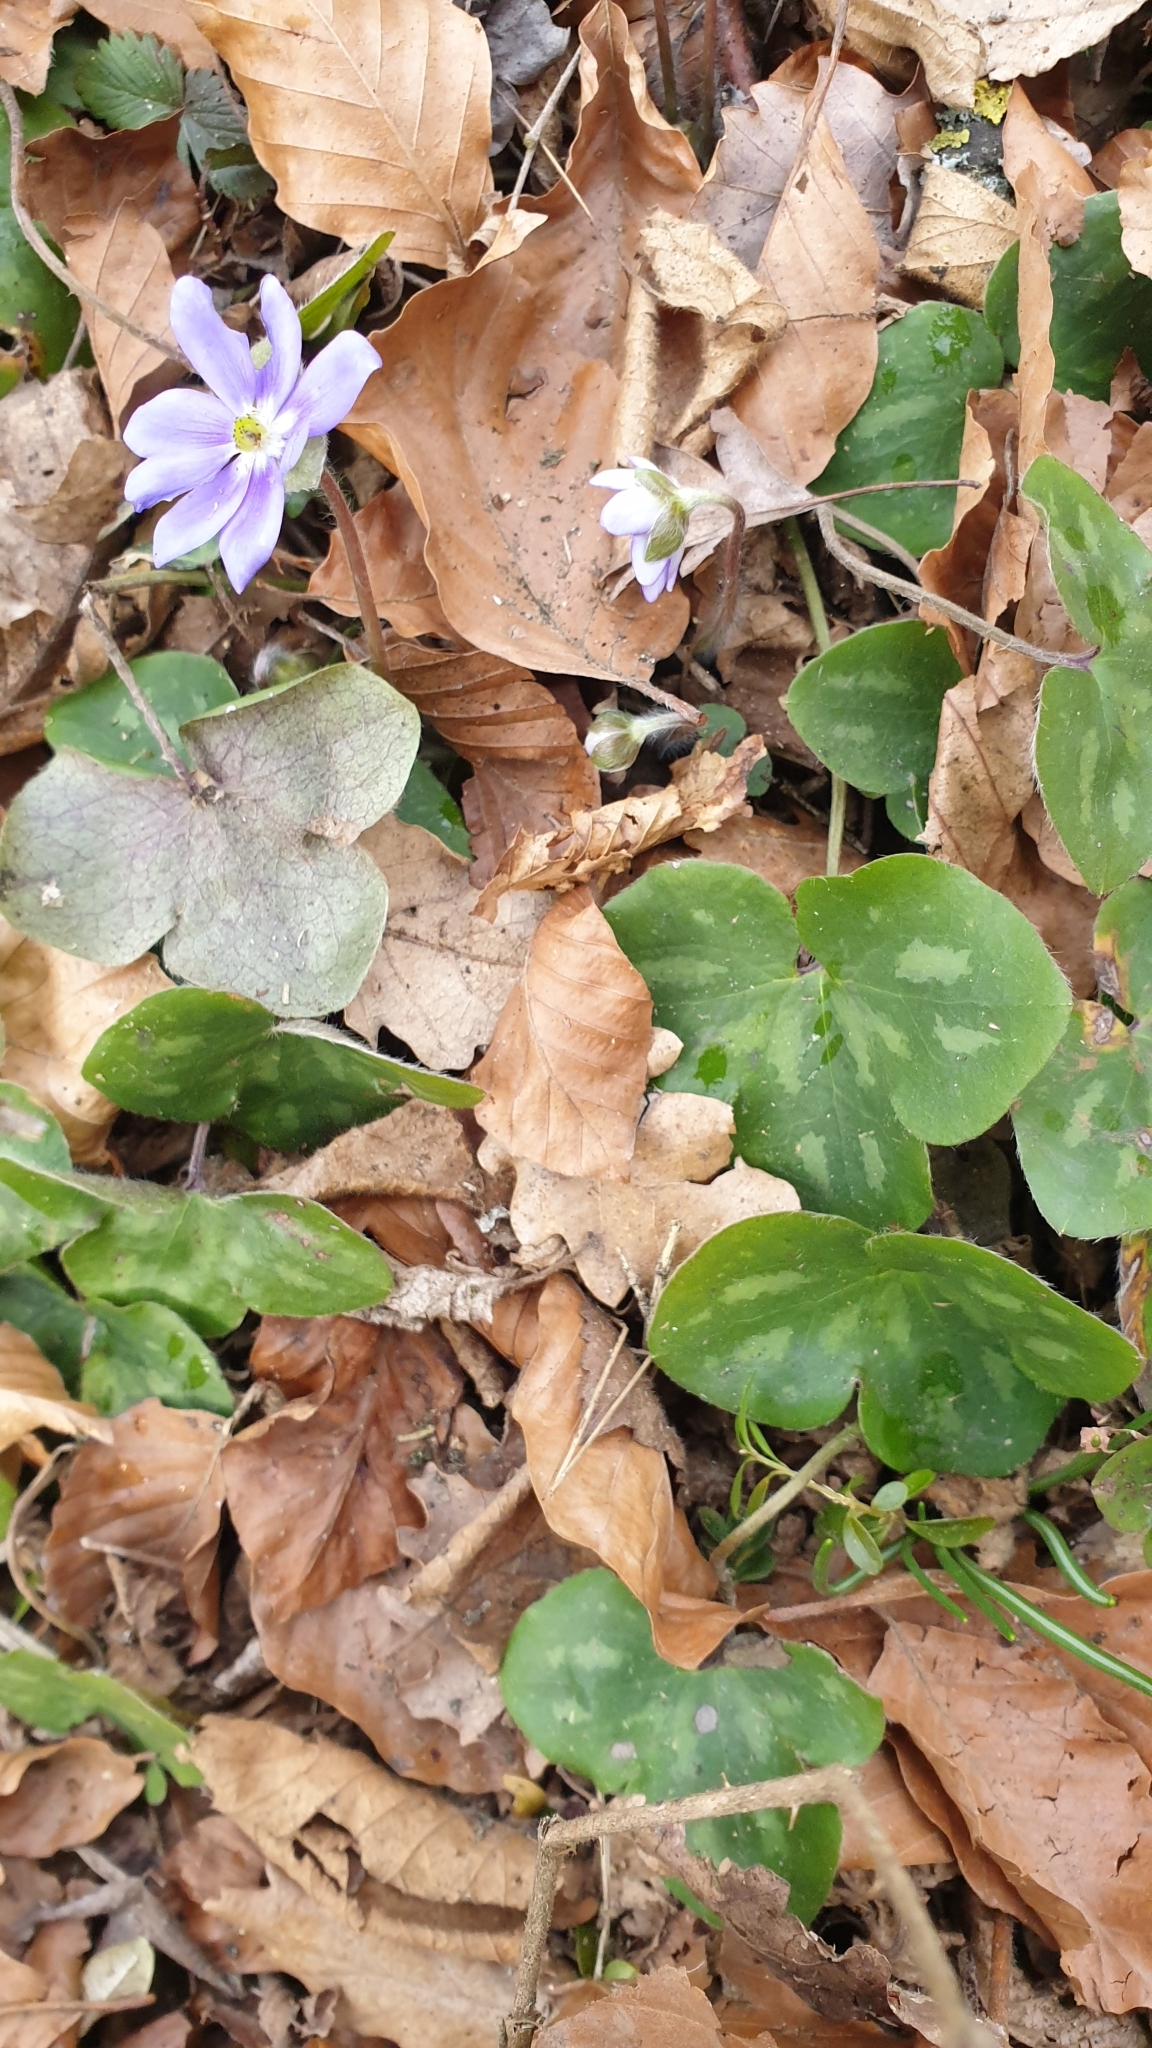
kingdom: Plantae
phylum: Tracheophyta
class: Magnoliopsida
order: Ranunculales
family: Ranunculaceae
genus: Hepatica
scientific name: Hepatica nobilis
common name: Liverleaf
